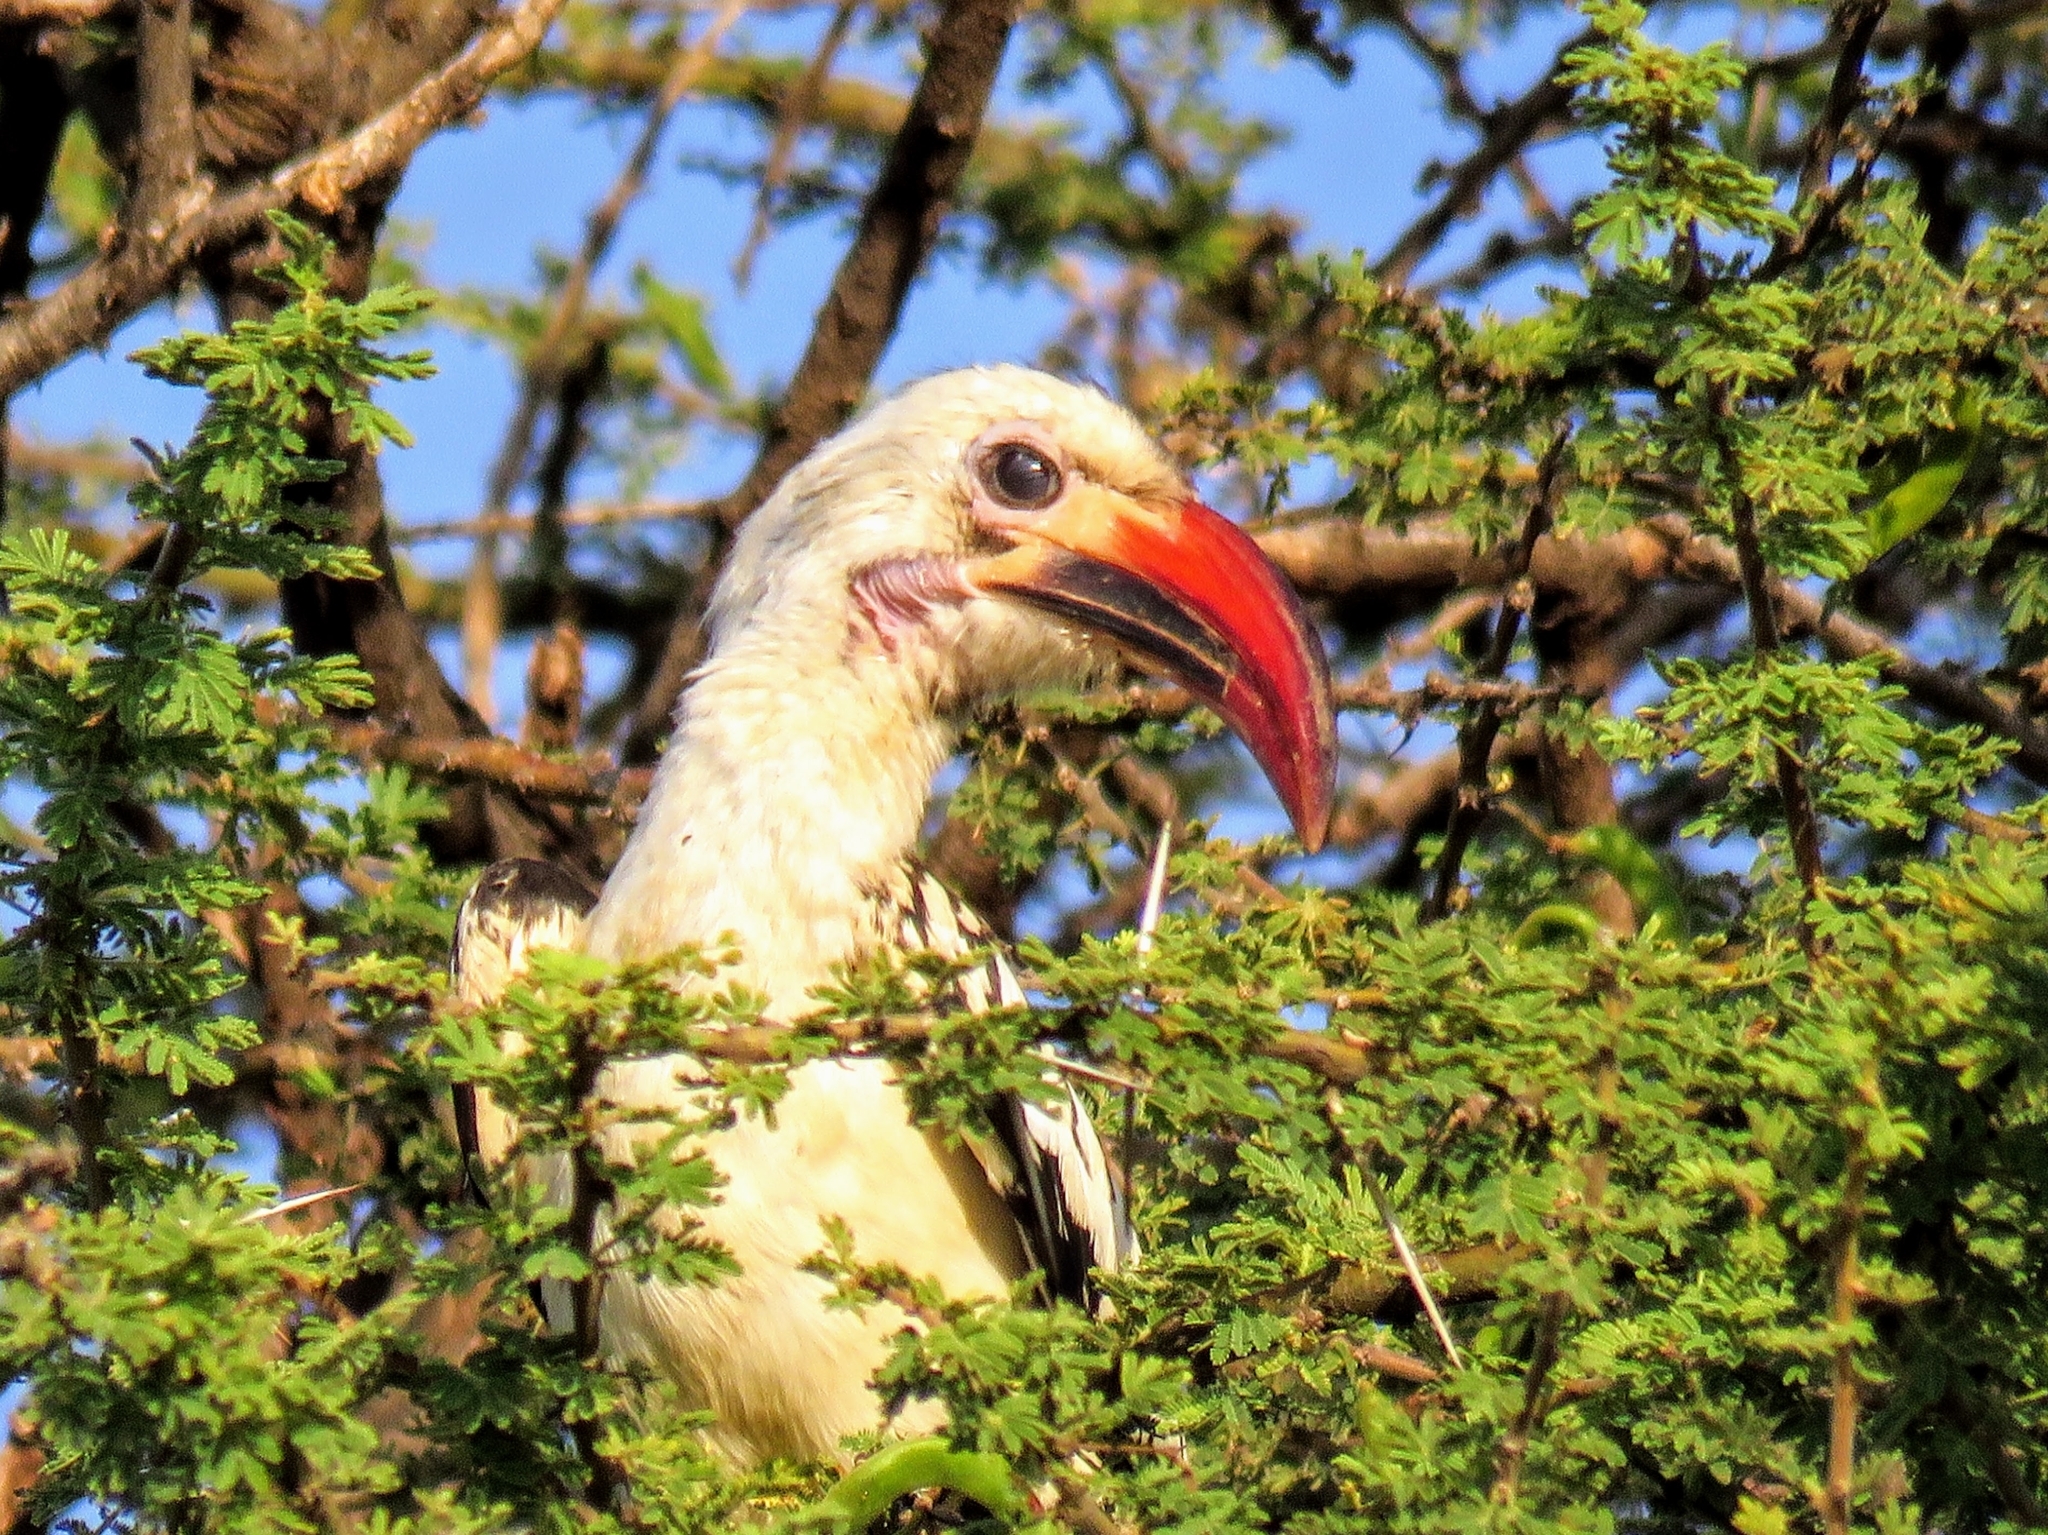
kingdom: Animalia
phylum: Chordata
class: Aves
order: Bucerotiformes
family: Bucerotidae
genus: Tockus
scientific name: Tockus erythrorhynchus
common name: Northern red-billed hornbill
